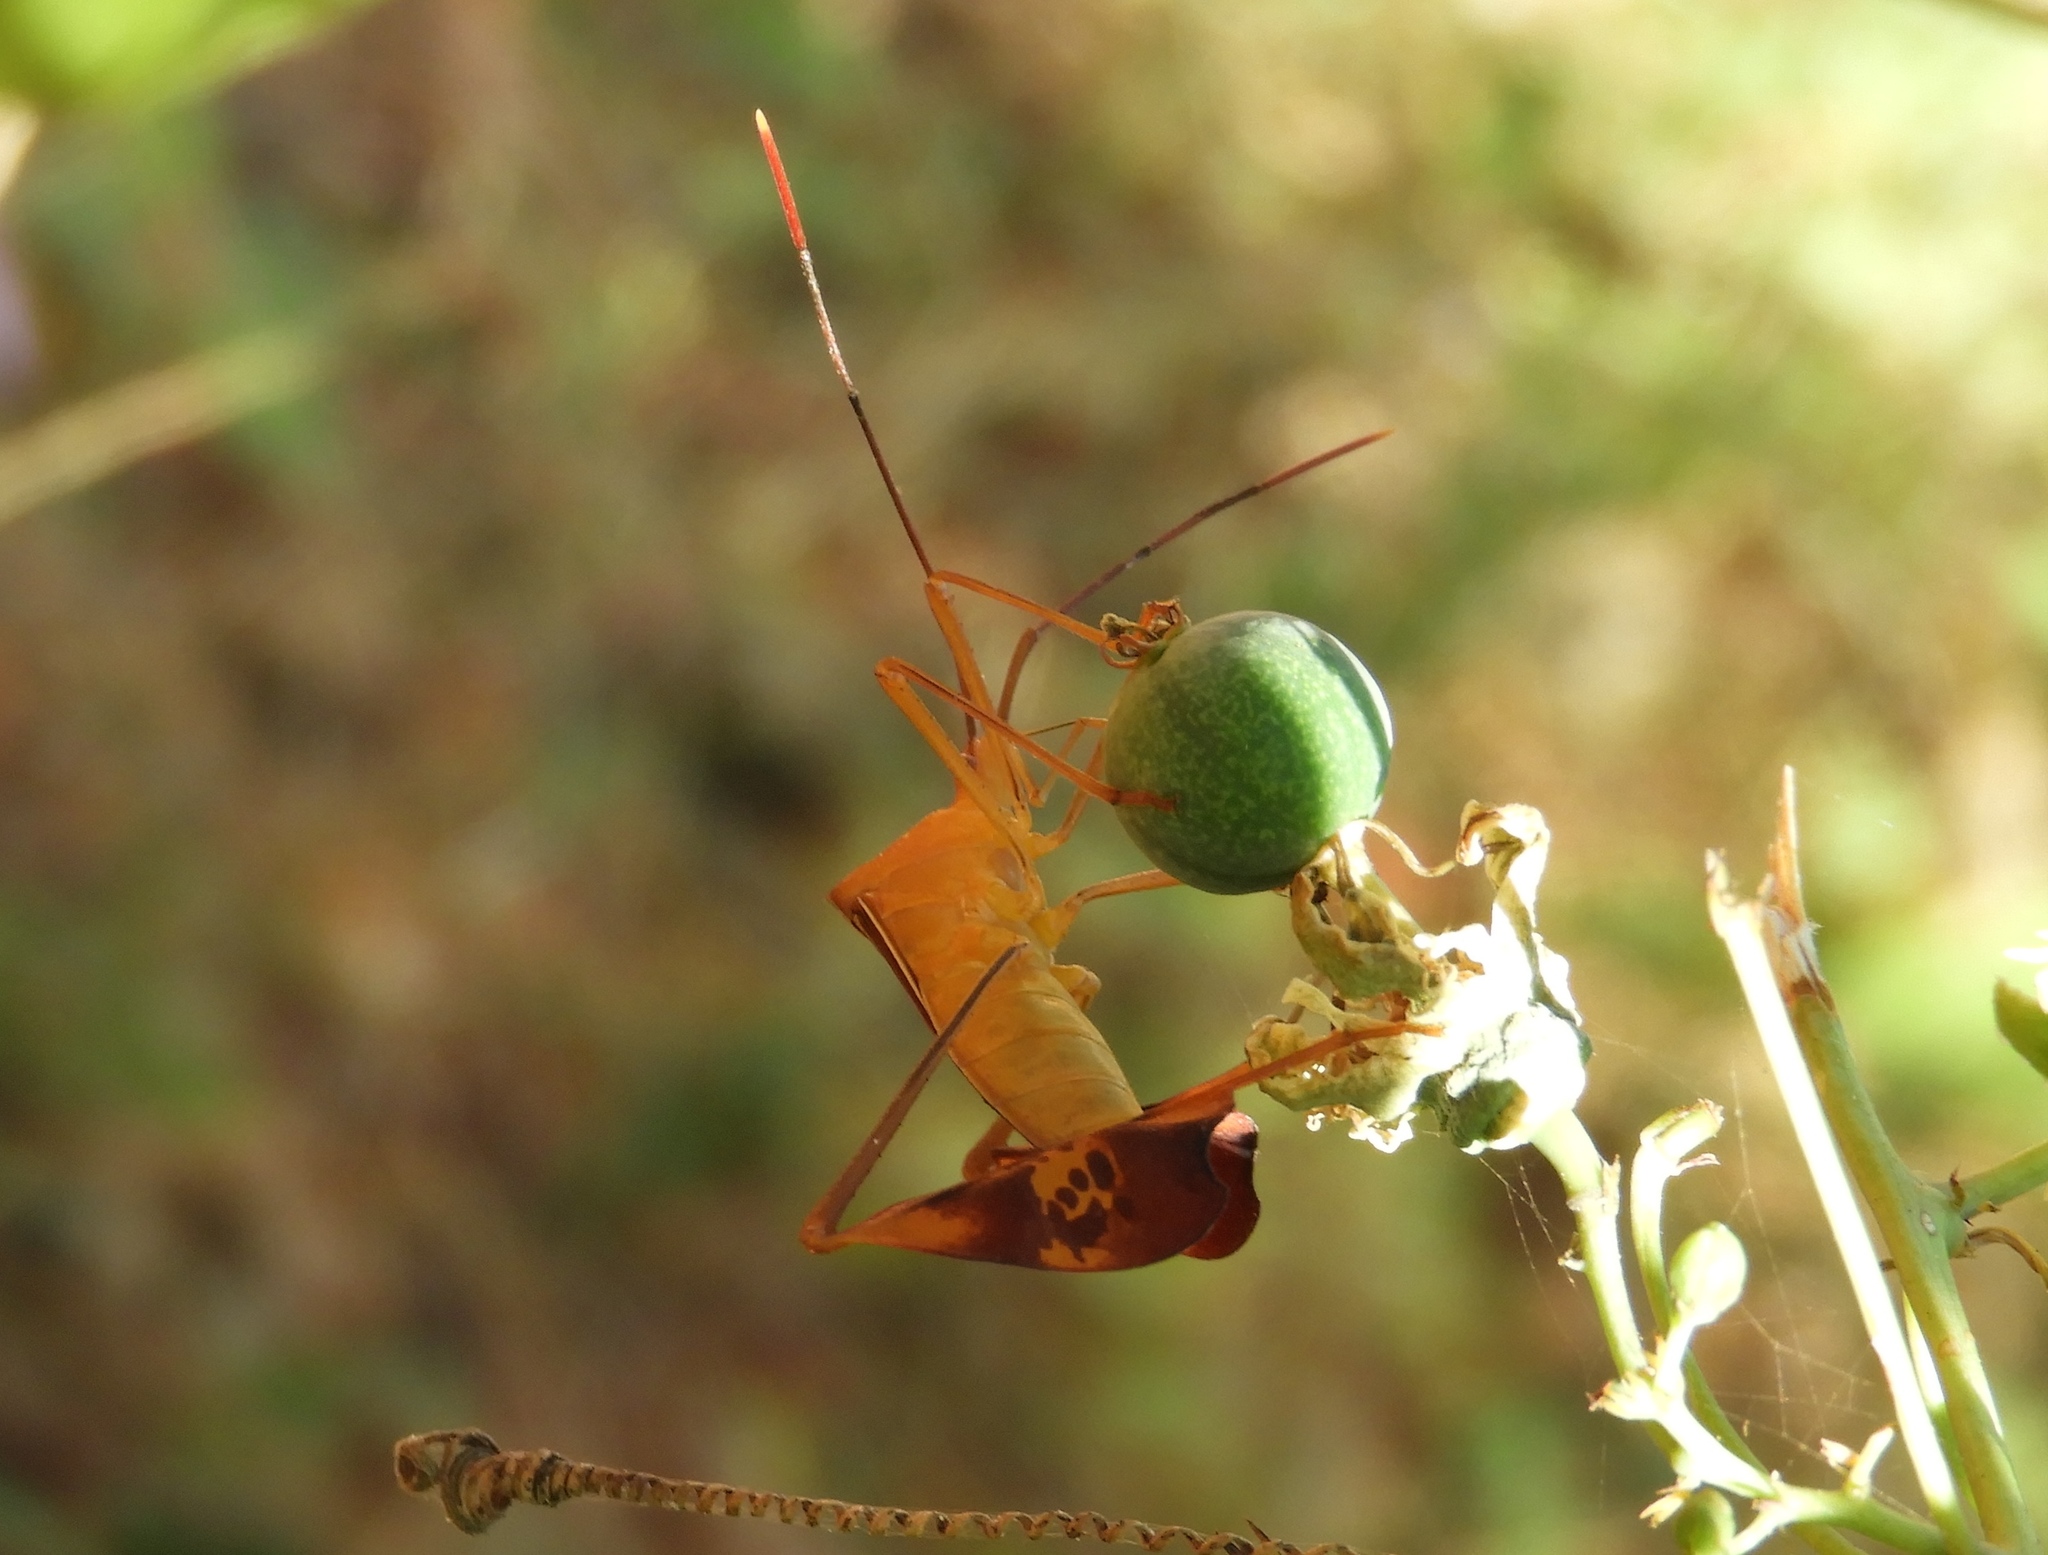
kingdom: Animalia
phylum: Arthropoda
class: Insecta
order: Hemiptera
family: Coreidae
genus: Bitta
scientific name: Bitta
